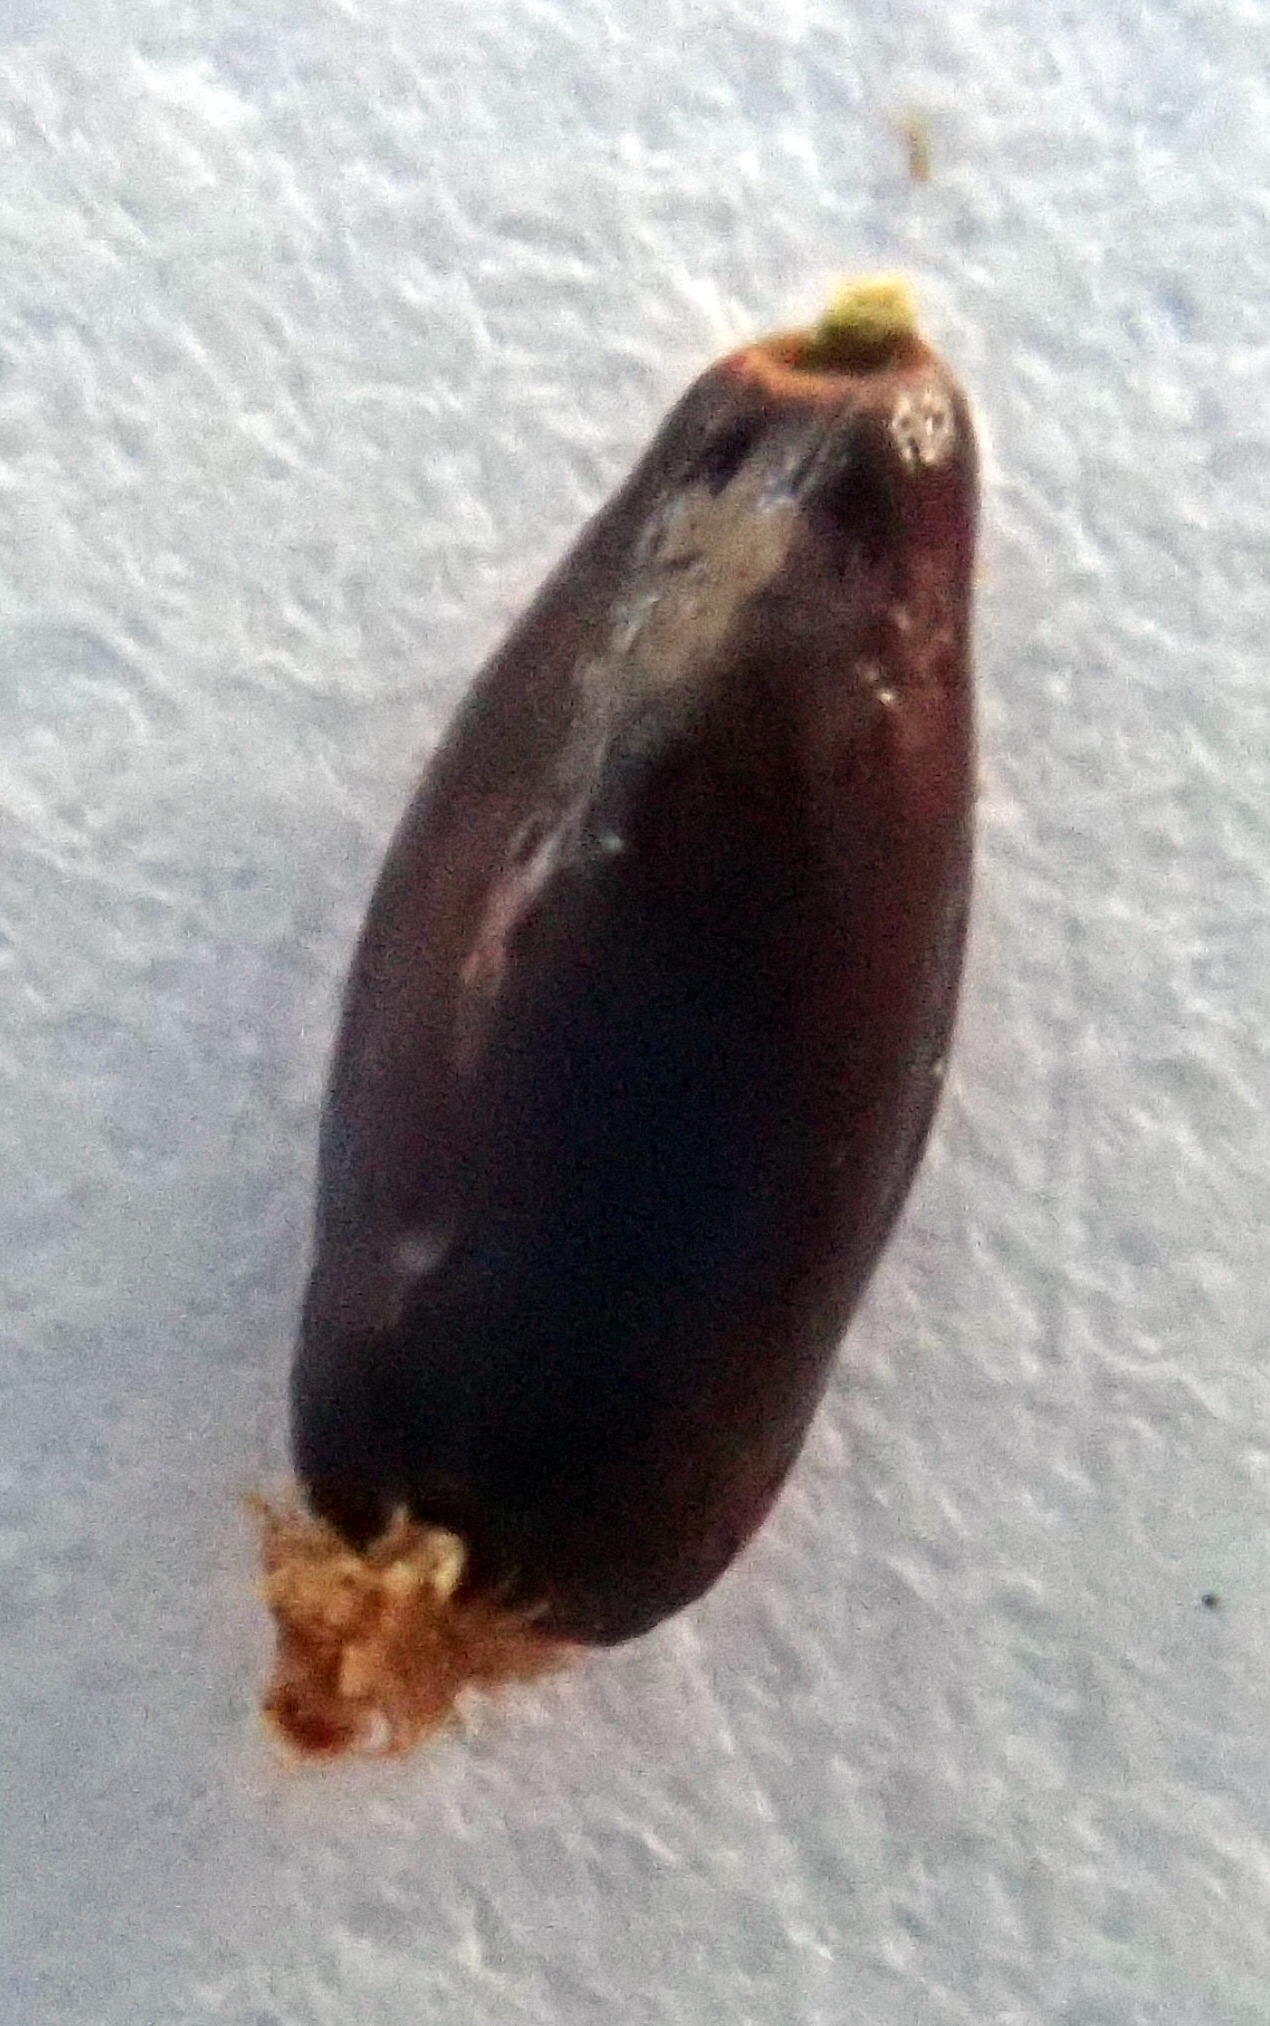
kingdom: Plantae
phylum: Tracheophyta
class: Liliopsida
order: Poales
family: Restionaceae
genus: Sporadanthus
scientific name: Sporadanthus traversii
